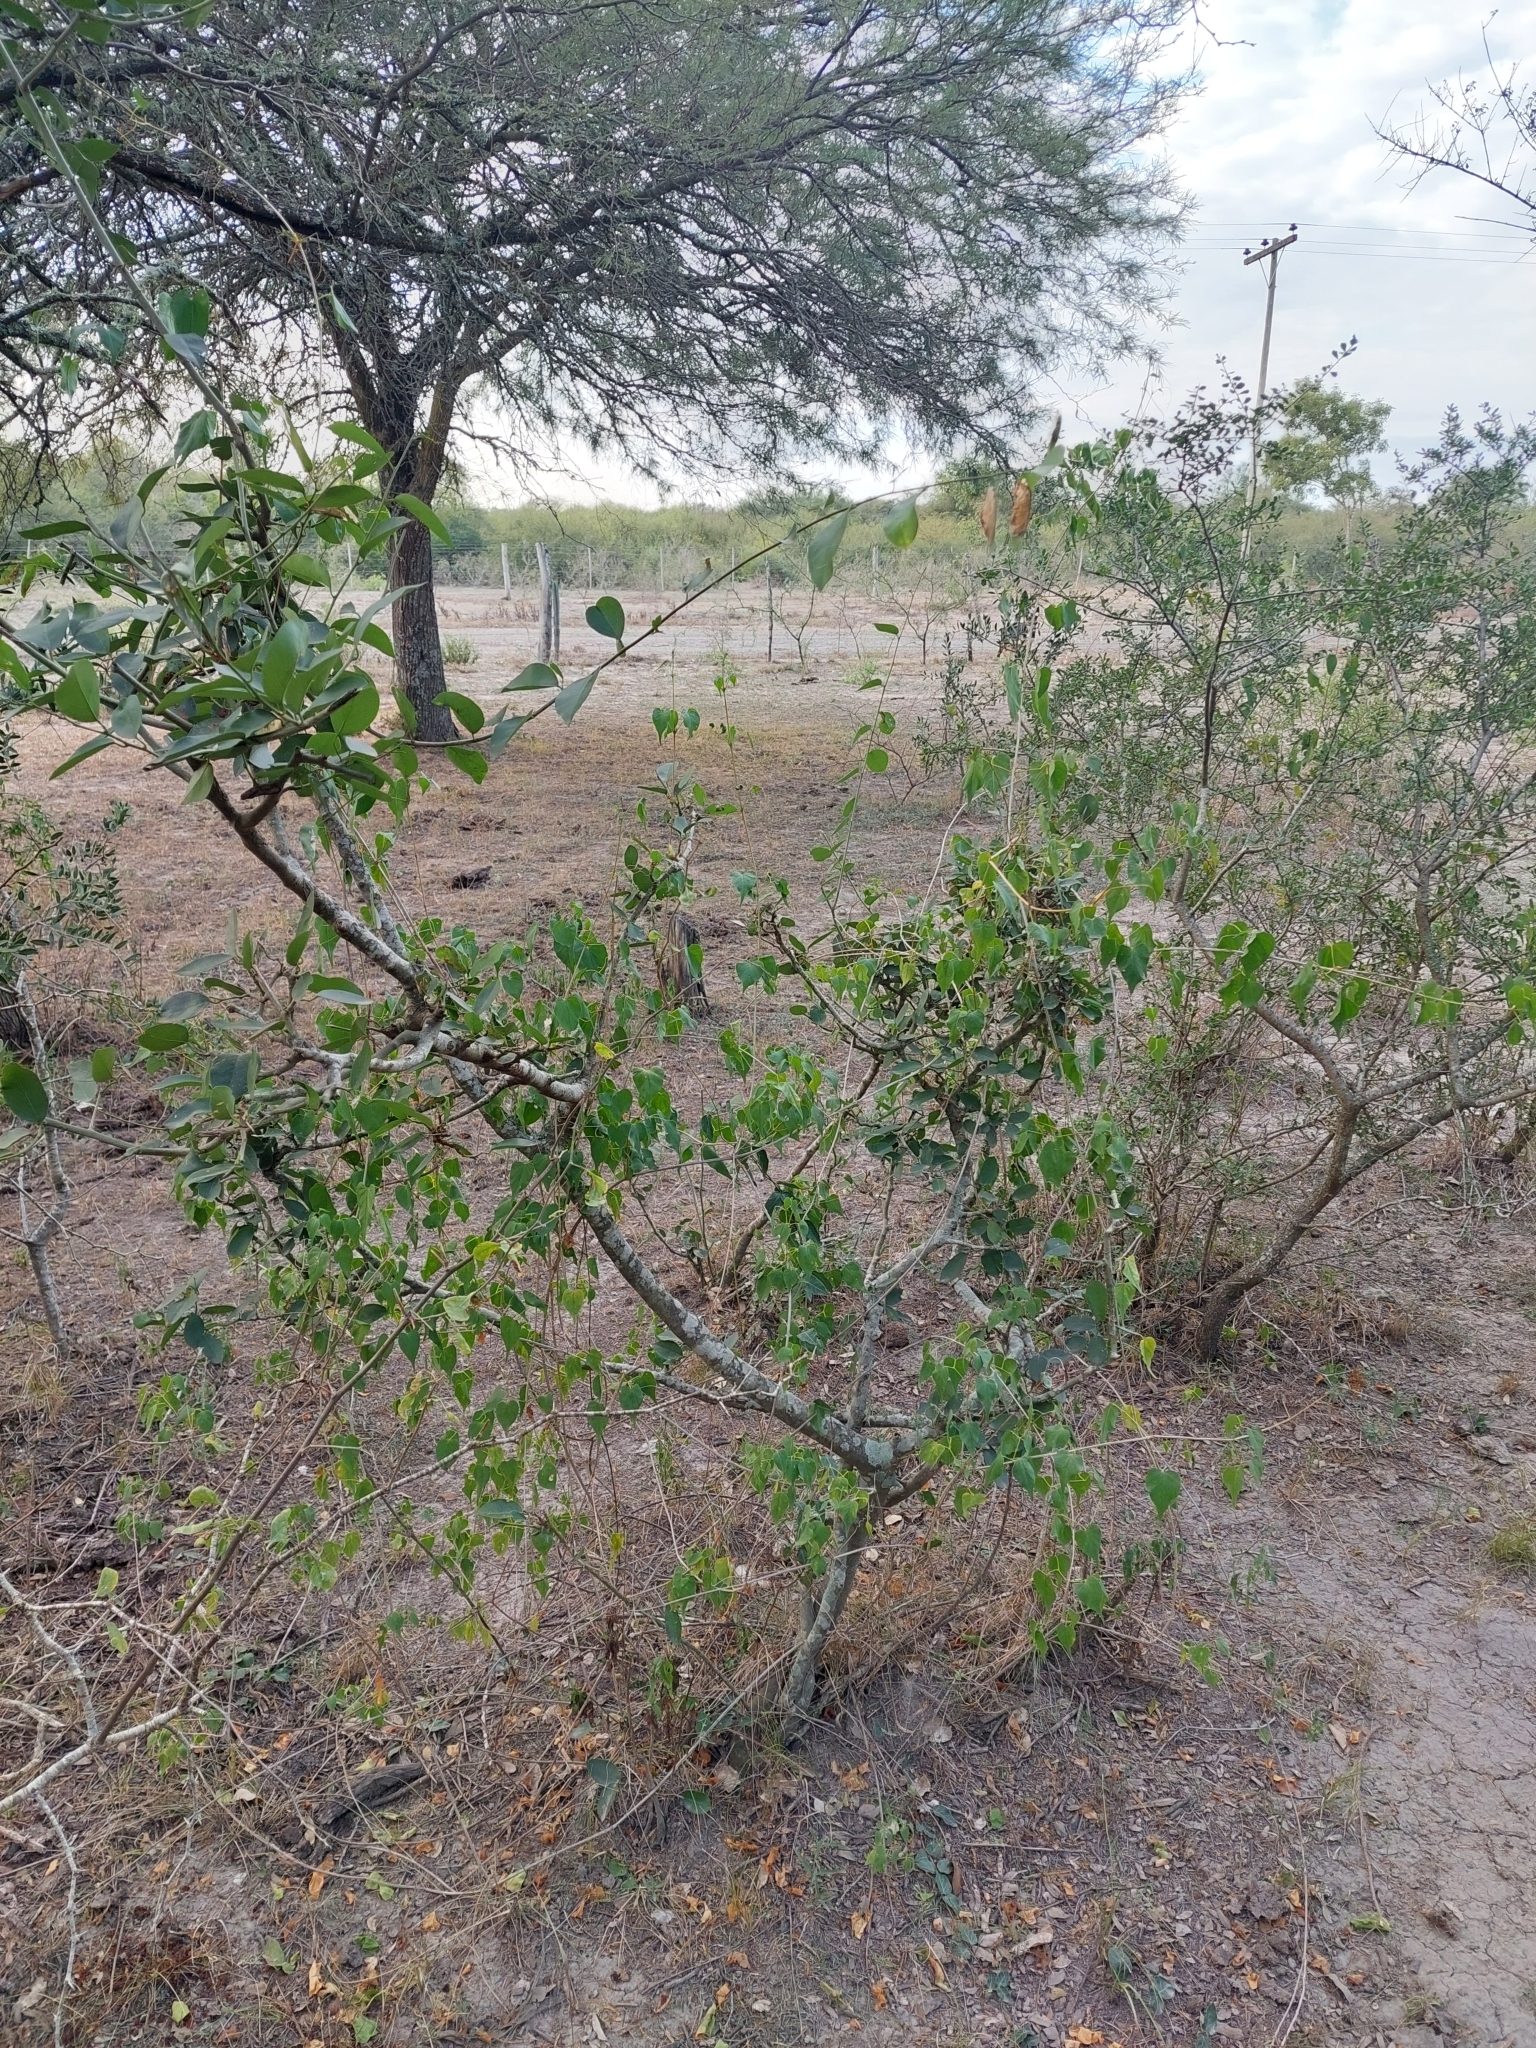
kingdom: Plantae
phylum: Tracheophyta
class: Magnoliopsida
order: Brassicales
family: Capparaceae
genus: Cynophalla
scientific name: Cynophalla retusa
